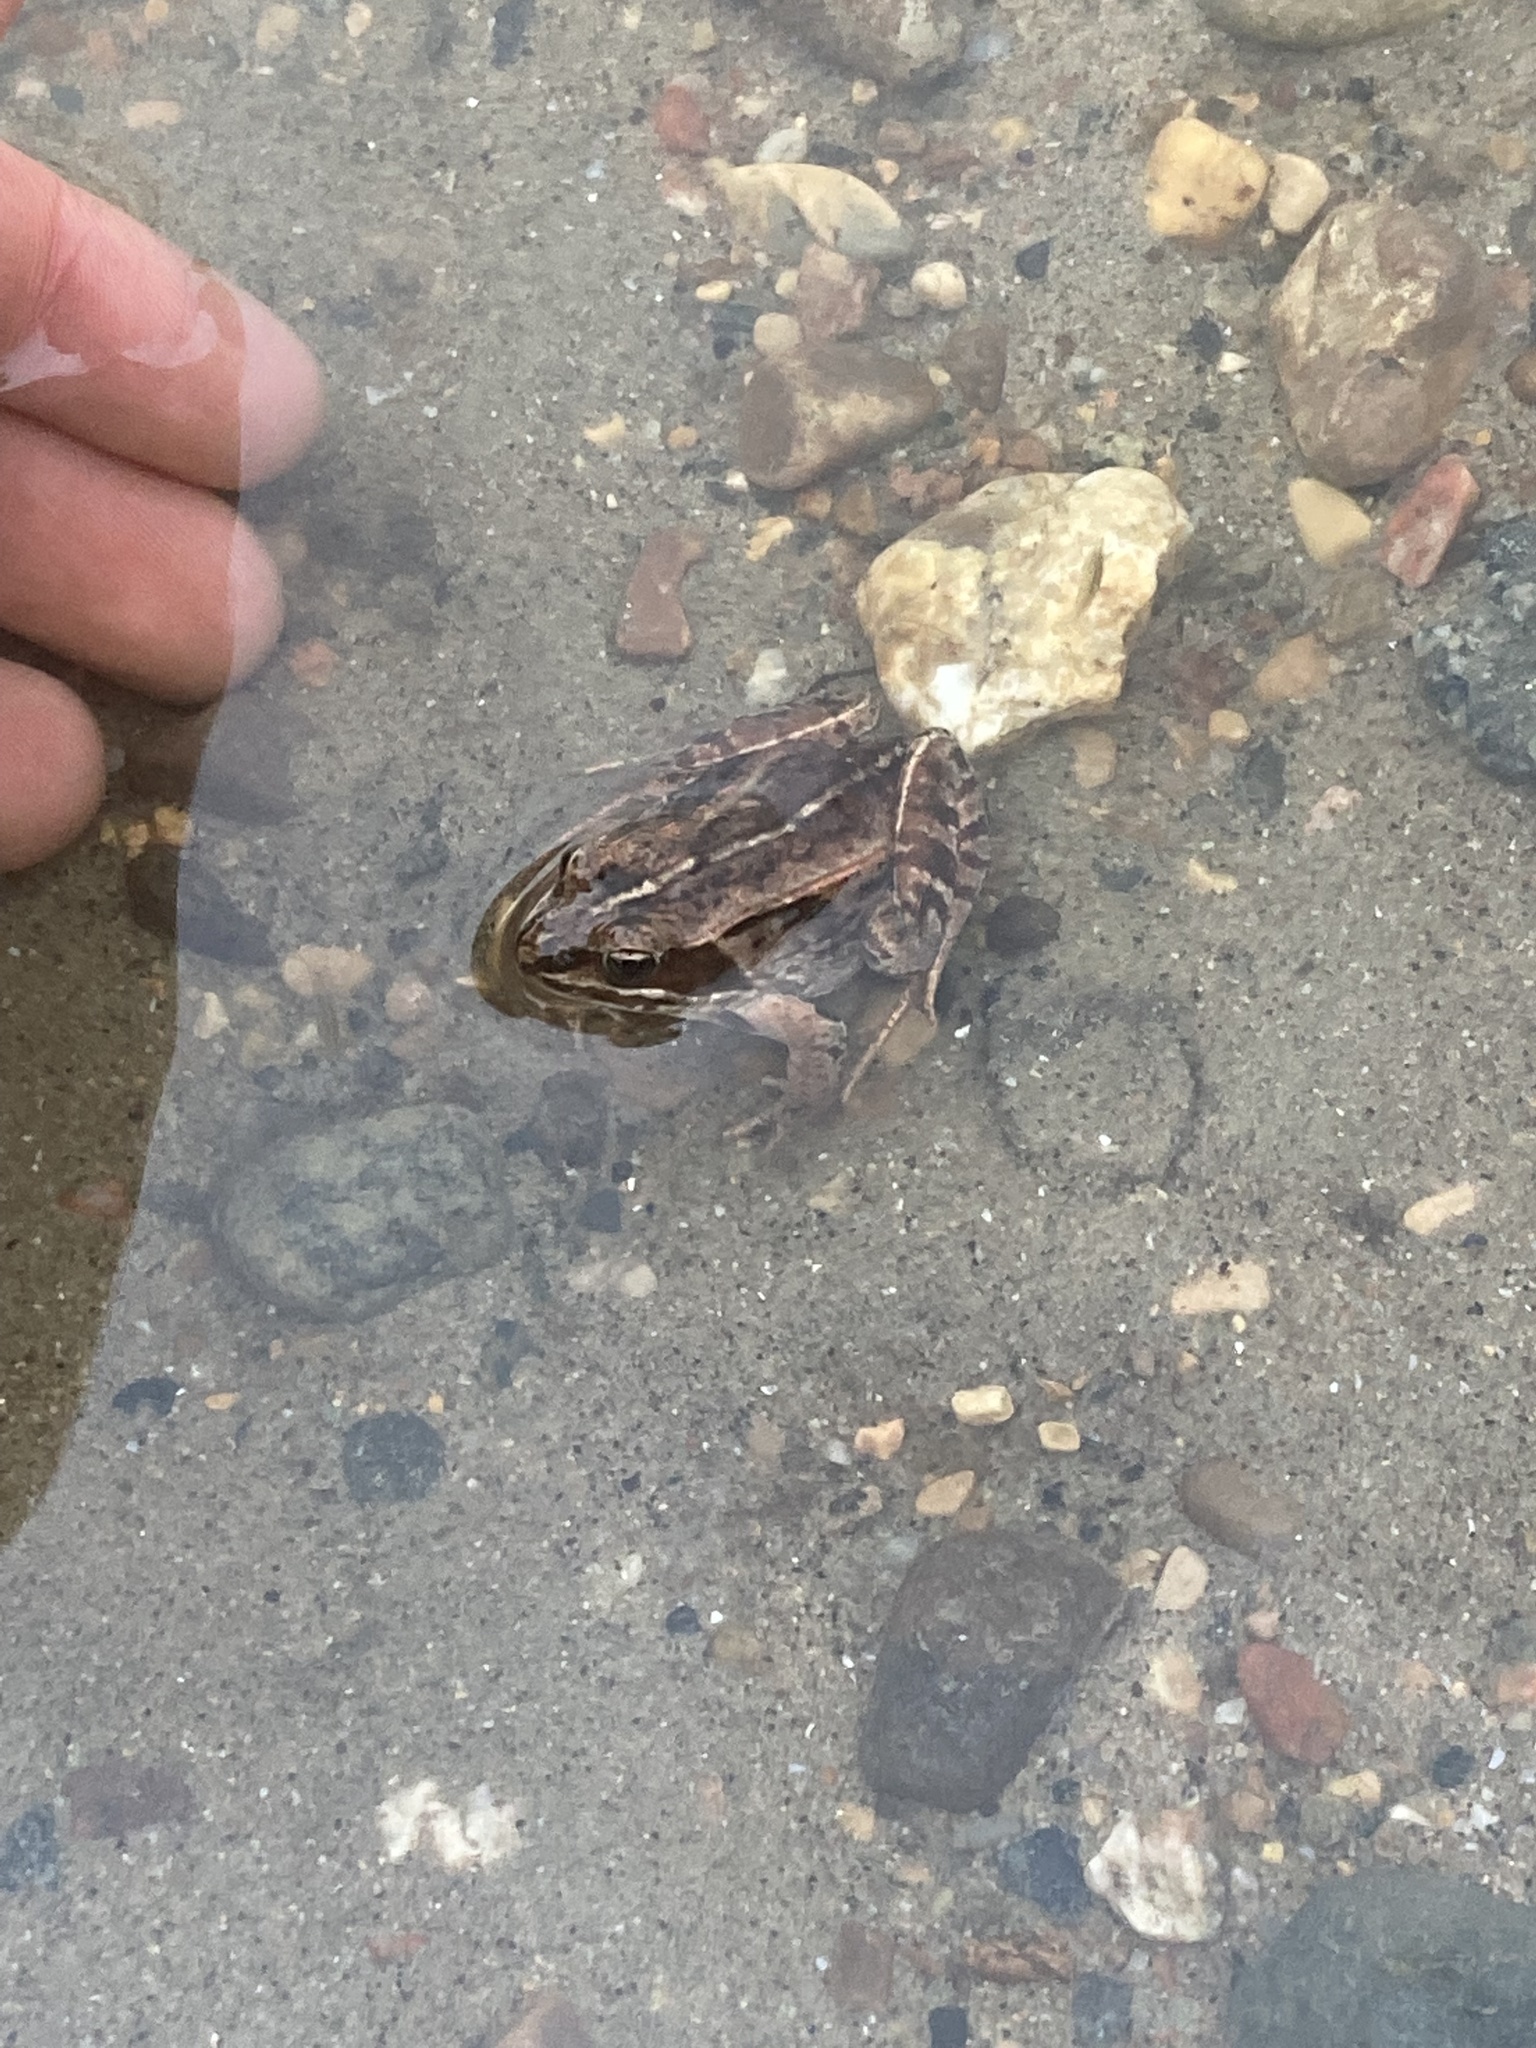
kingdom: Animalia
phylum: Chordata
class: Amphibia
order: Anura
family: Ranidae
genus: Lithobates
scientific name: Lithobates sylvaticus
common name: Wood frog
